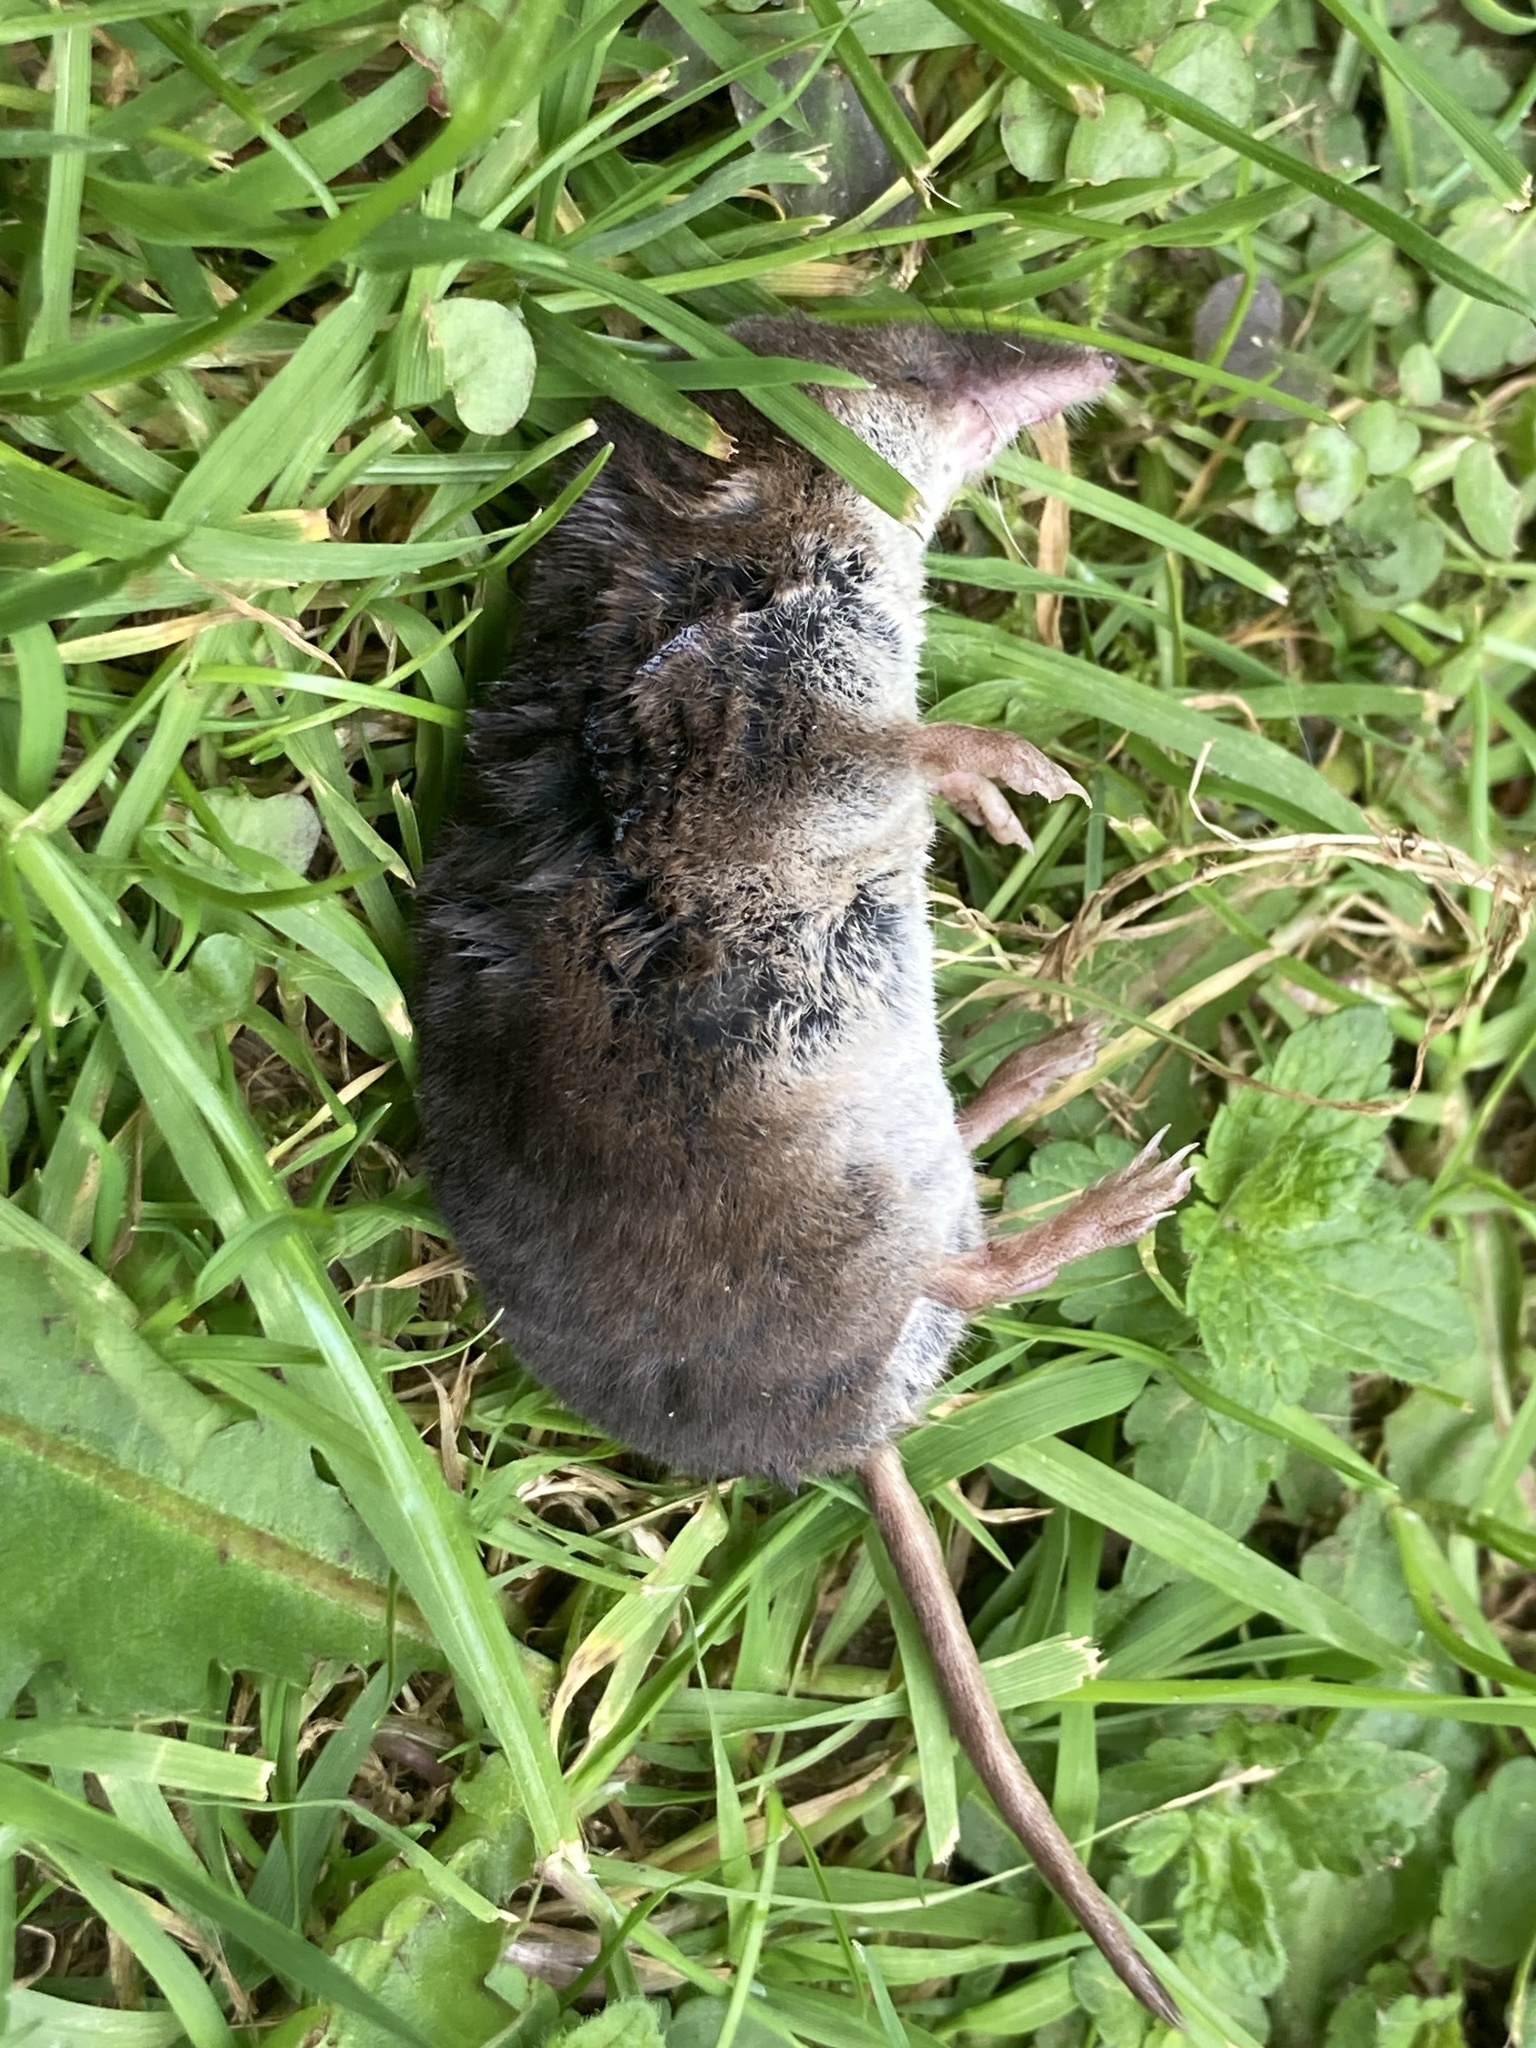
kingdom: Animalia
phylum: Chordata
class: Mammalia
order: Soricomorpha
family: Soricidae
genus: Sorex
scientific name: Sorex araneus
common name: Common shrew
